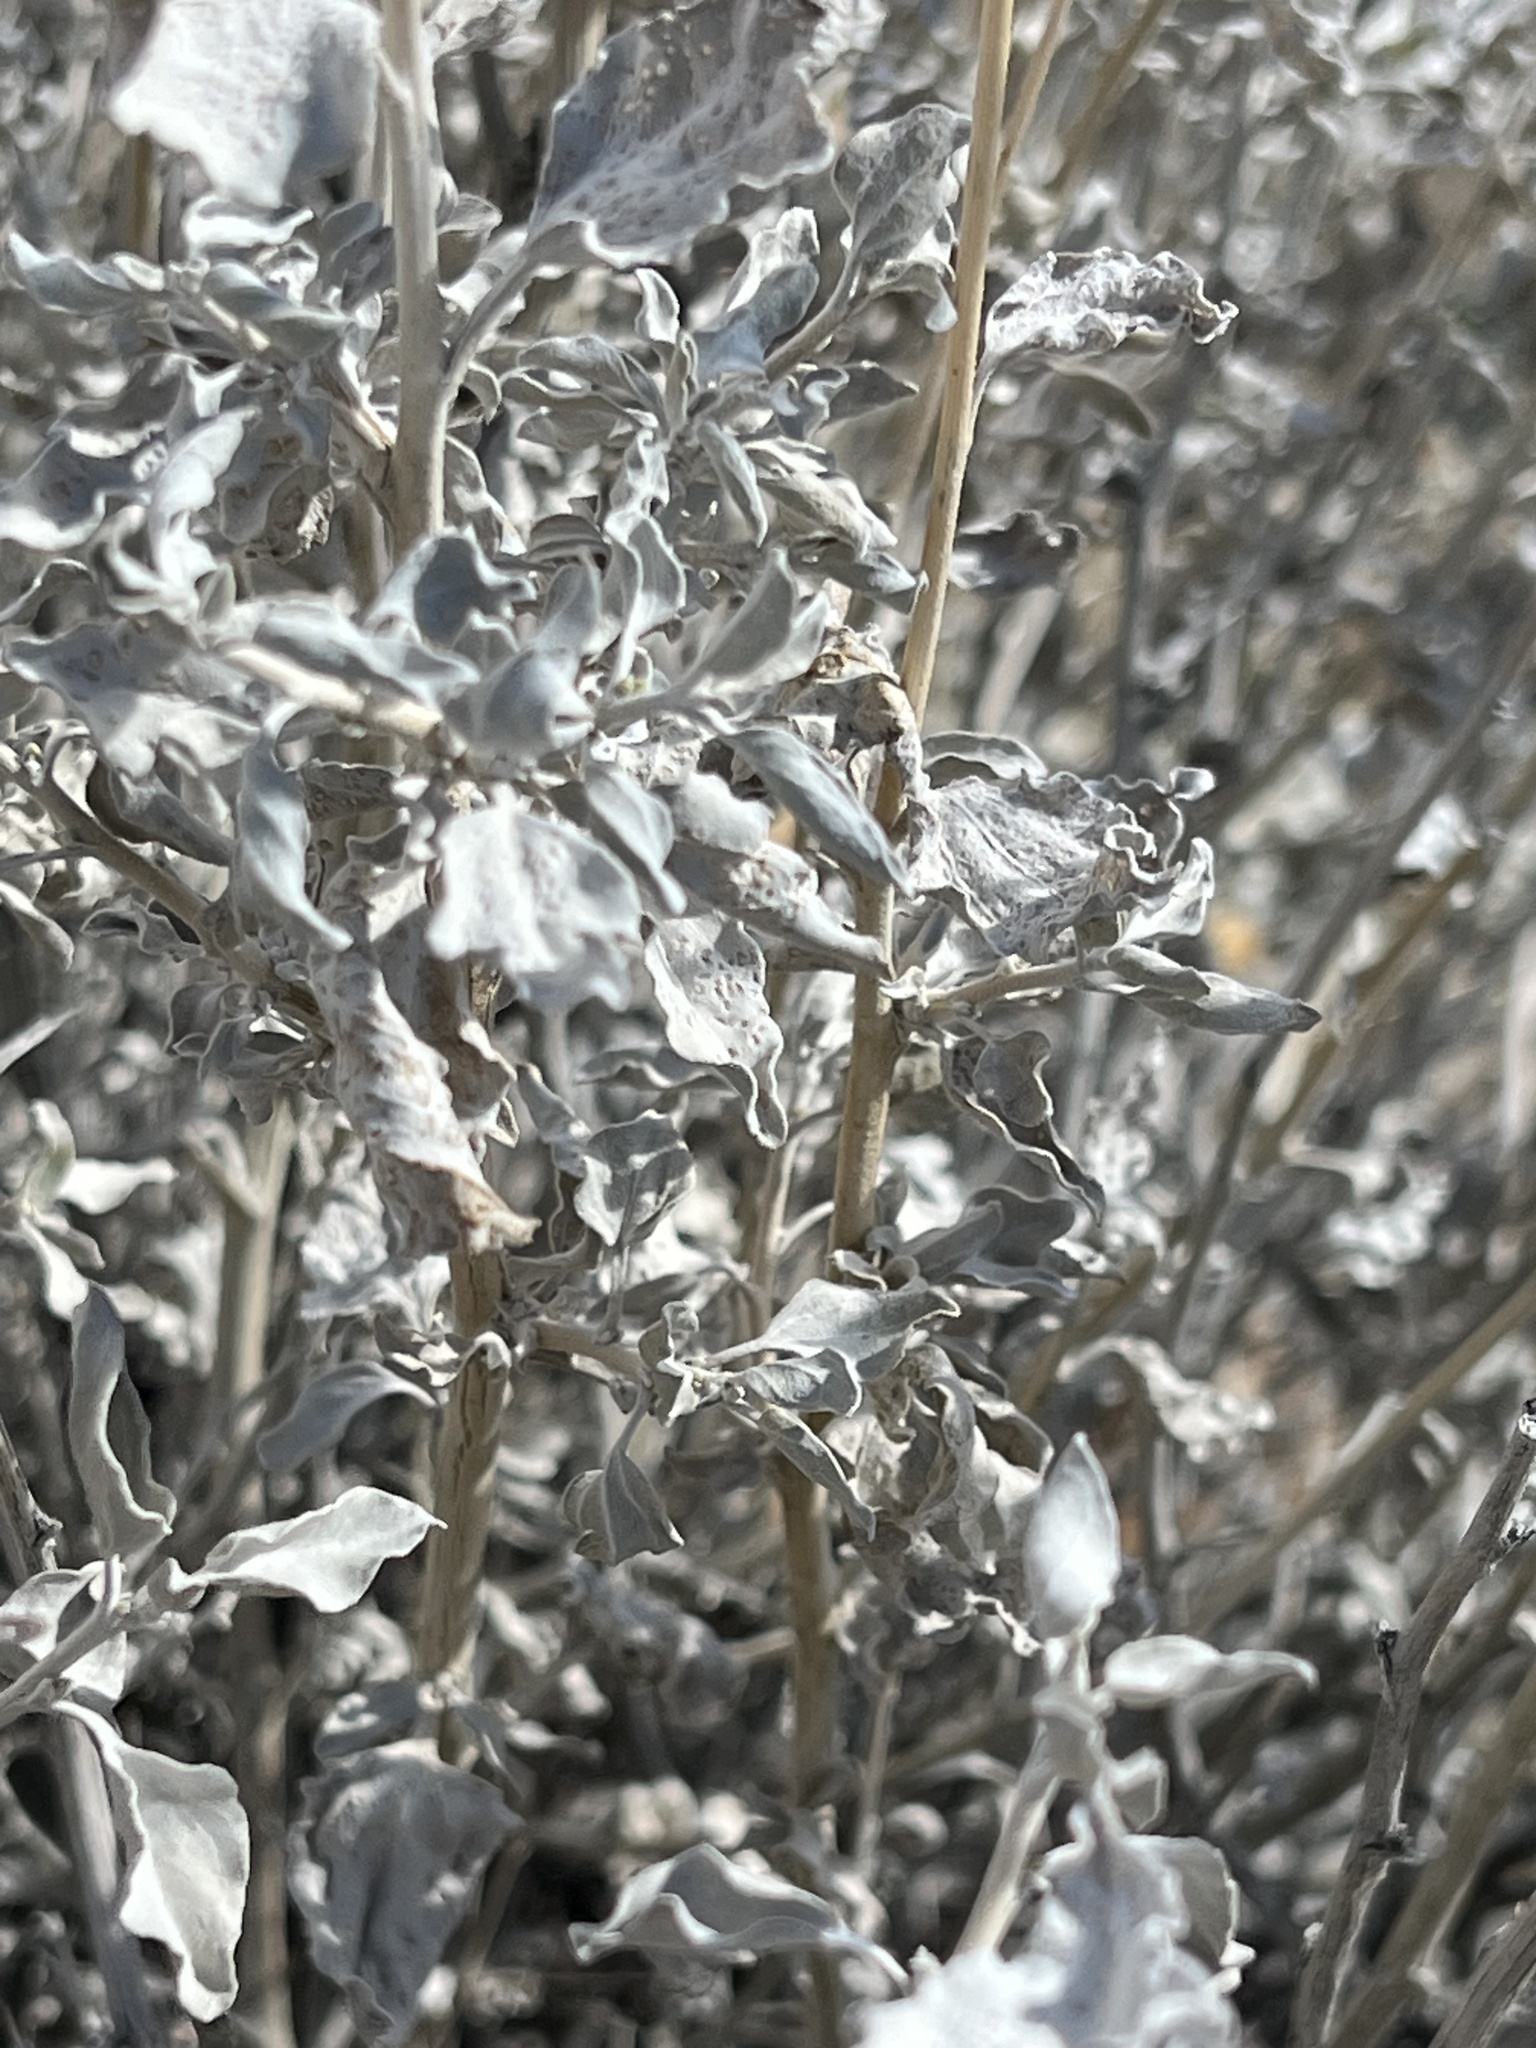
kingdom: Plantae
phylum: Tracheophyta
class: Magnoliopsida
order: Asterales
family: Asteraceae
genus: Encelia
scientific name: Encelia actoni
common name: Acton encelia
